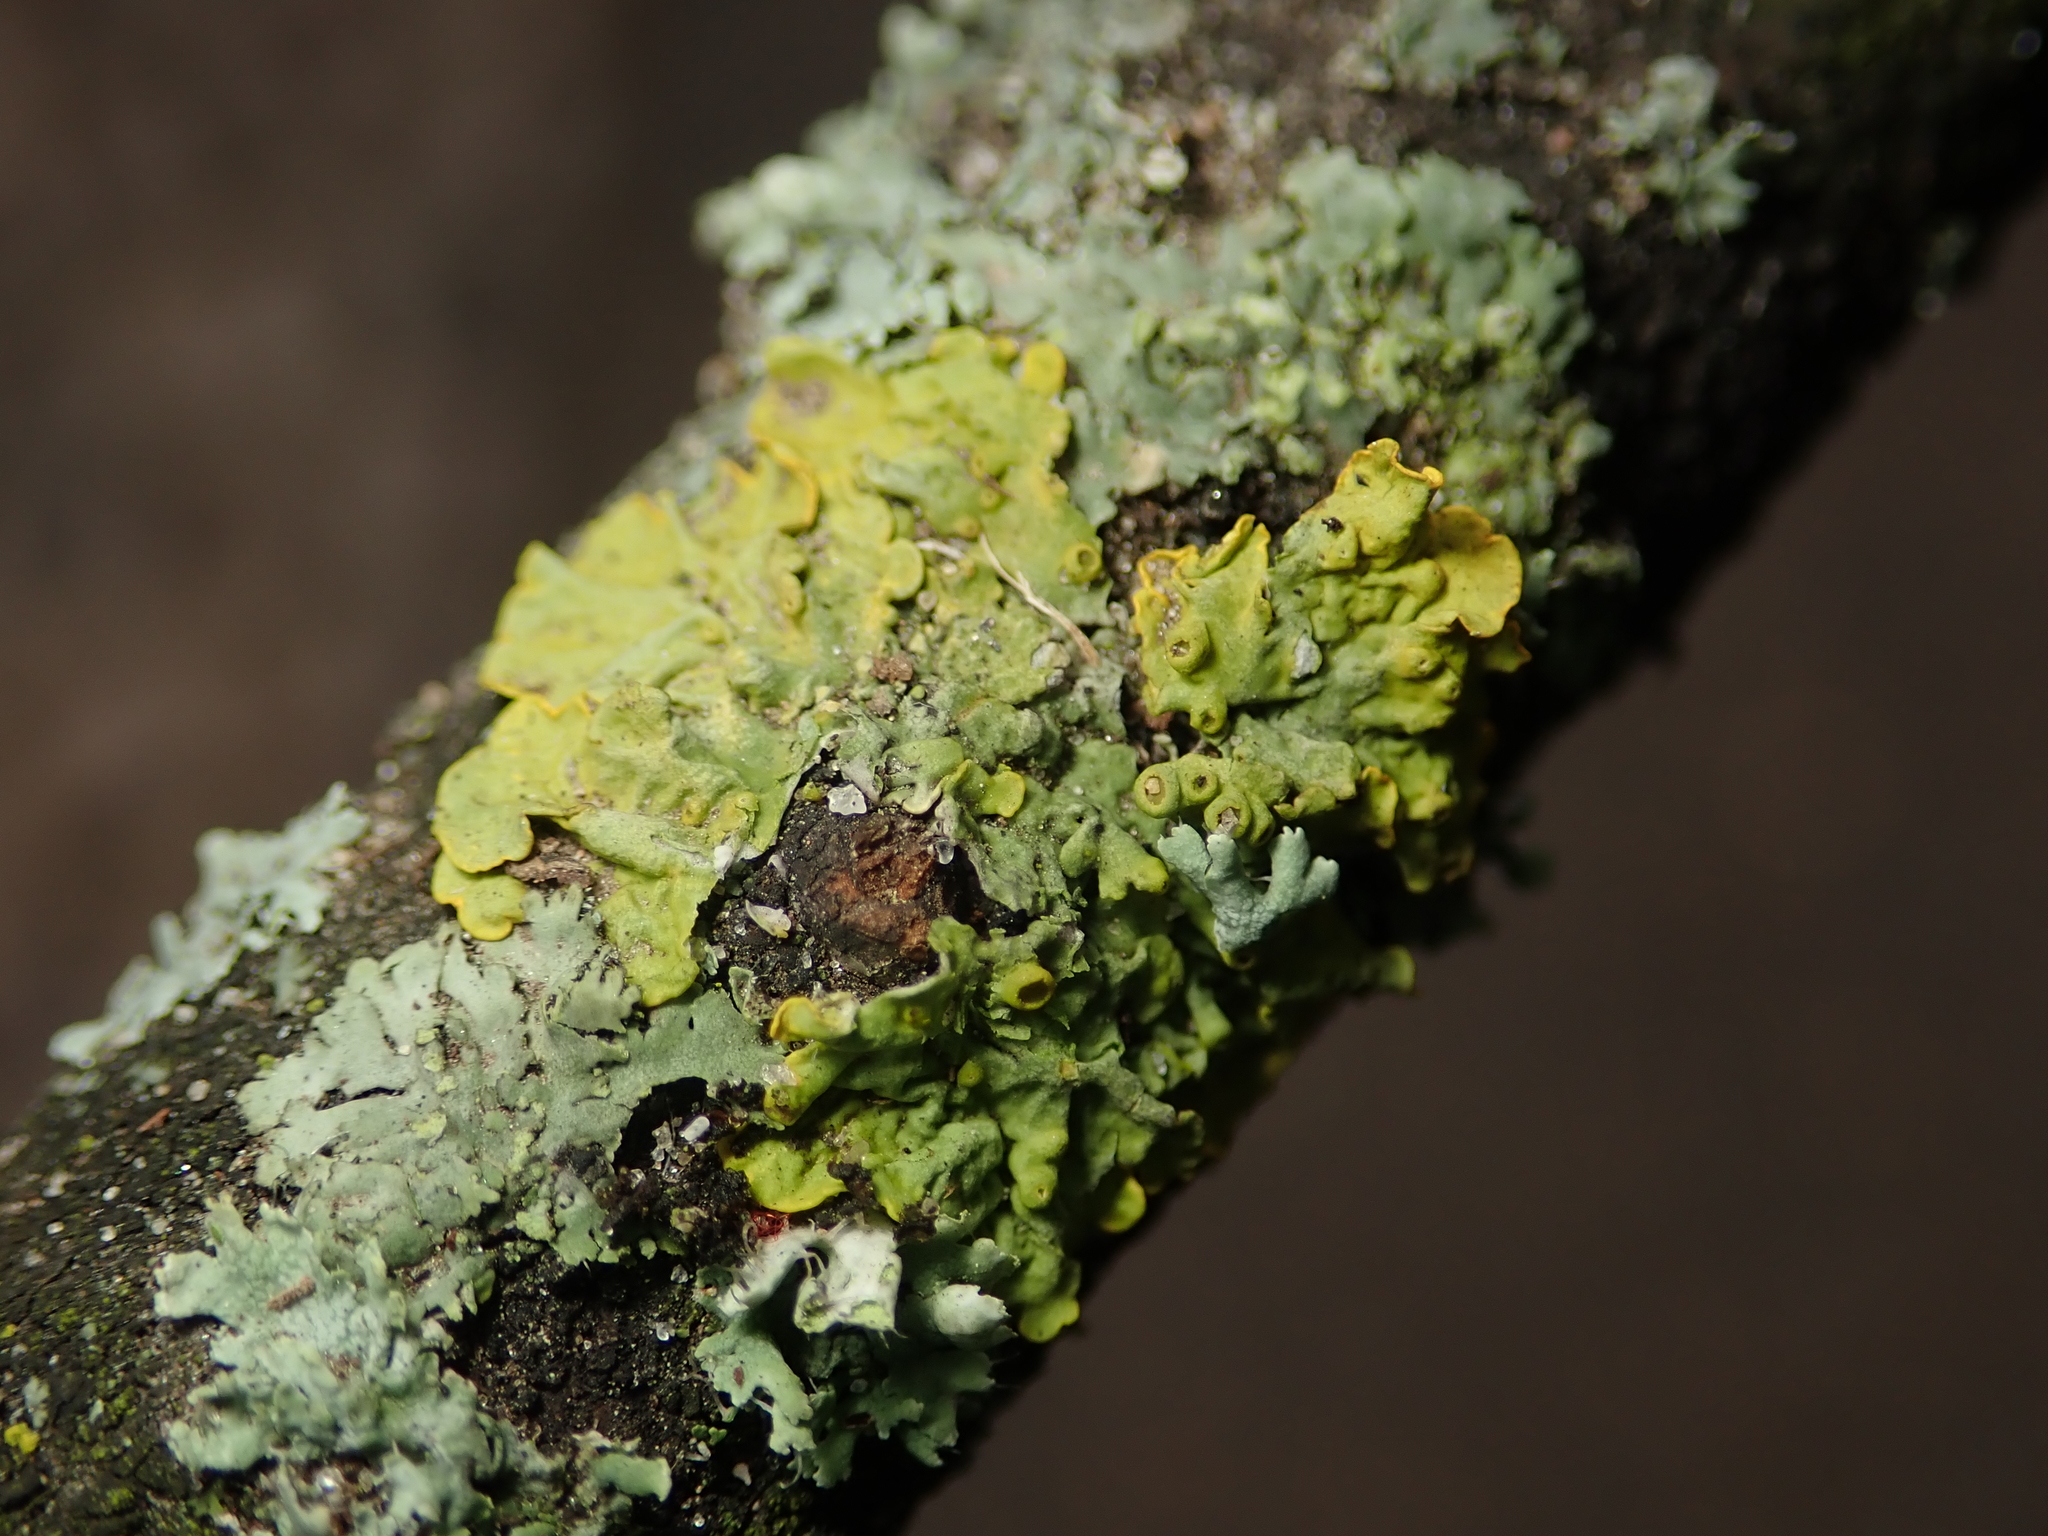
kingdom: Fungi
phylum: Ascomycota
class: Lecanoromycetes
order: Teloschistales
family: Teloschistaceae
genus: Xanthoria
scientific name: Xanthoria parietina
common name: Common orange lichen
